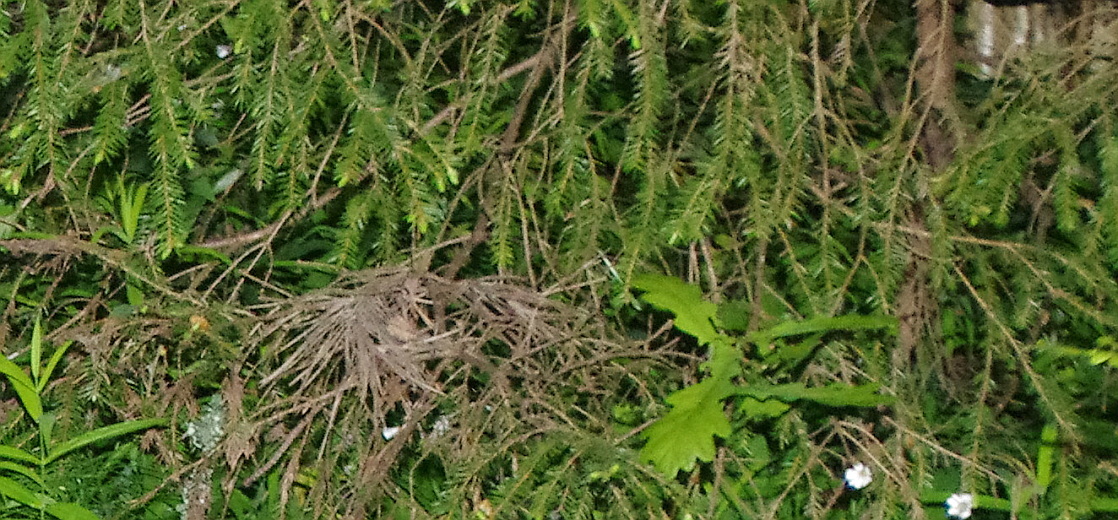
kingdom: Plantae
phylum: Tracheophyta
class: Pinopsida
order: Pinales
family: Pinaceae
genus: Picea
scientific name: Picea abies
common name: Norway spruce
